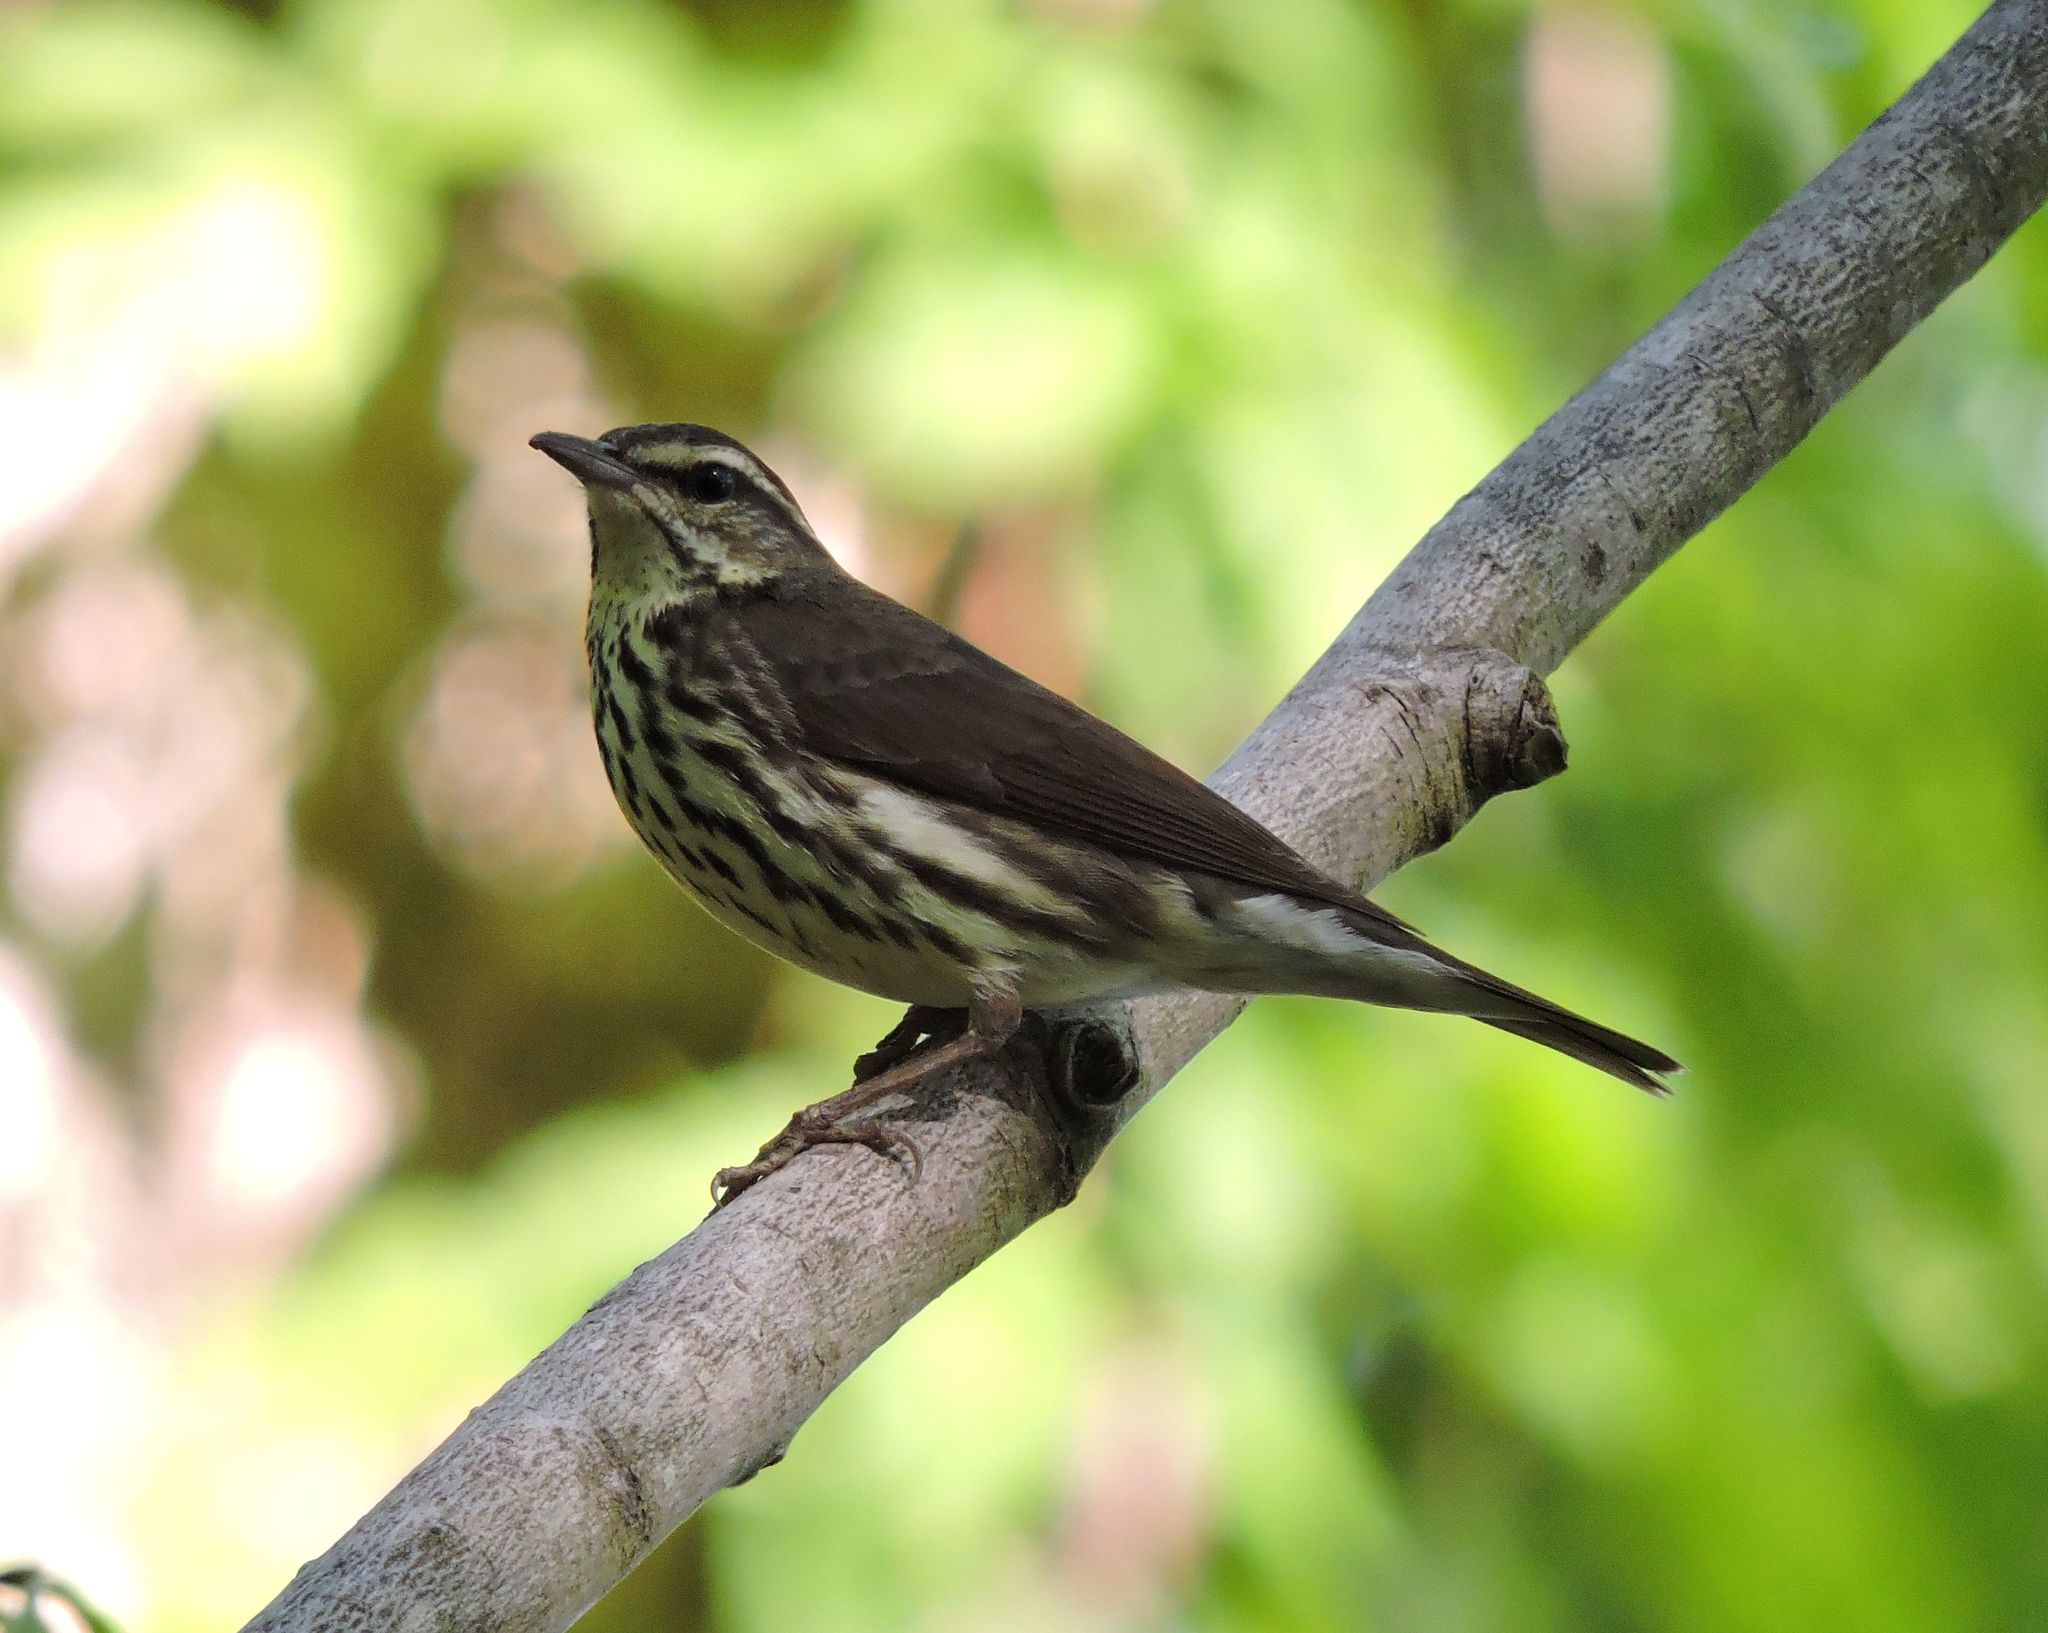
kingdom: Animalia
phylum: Chordata
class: Aves
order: Passeriformes
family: Parulidae
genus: Parkesia
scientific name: Parkesia motacilla
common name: Louisiana waterthrush
